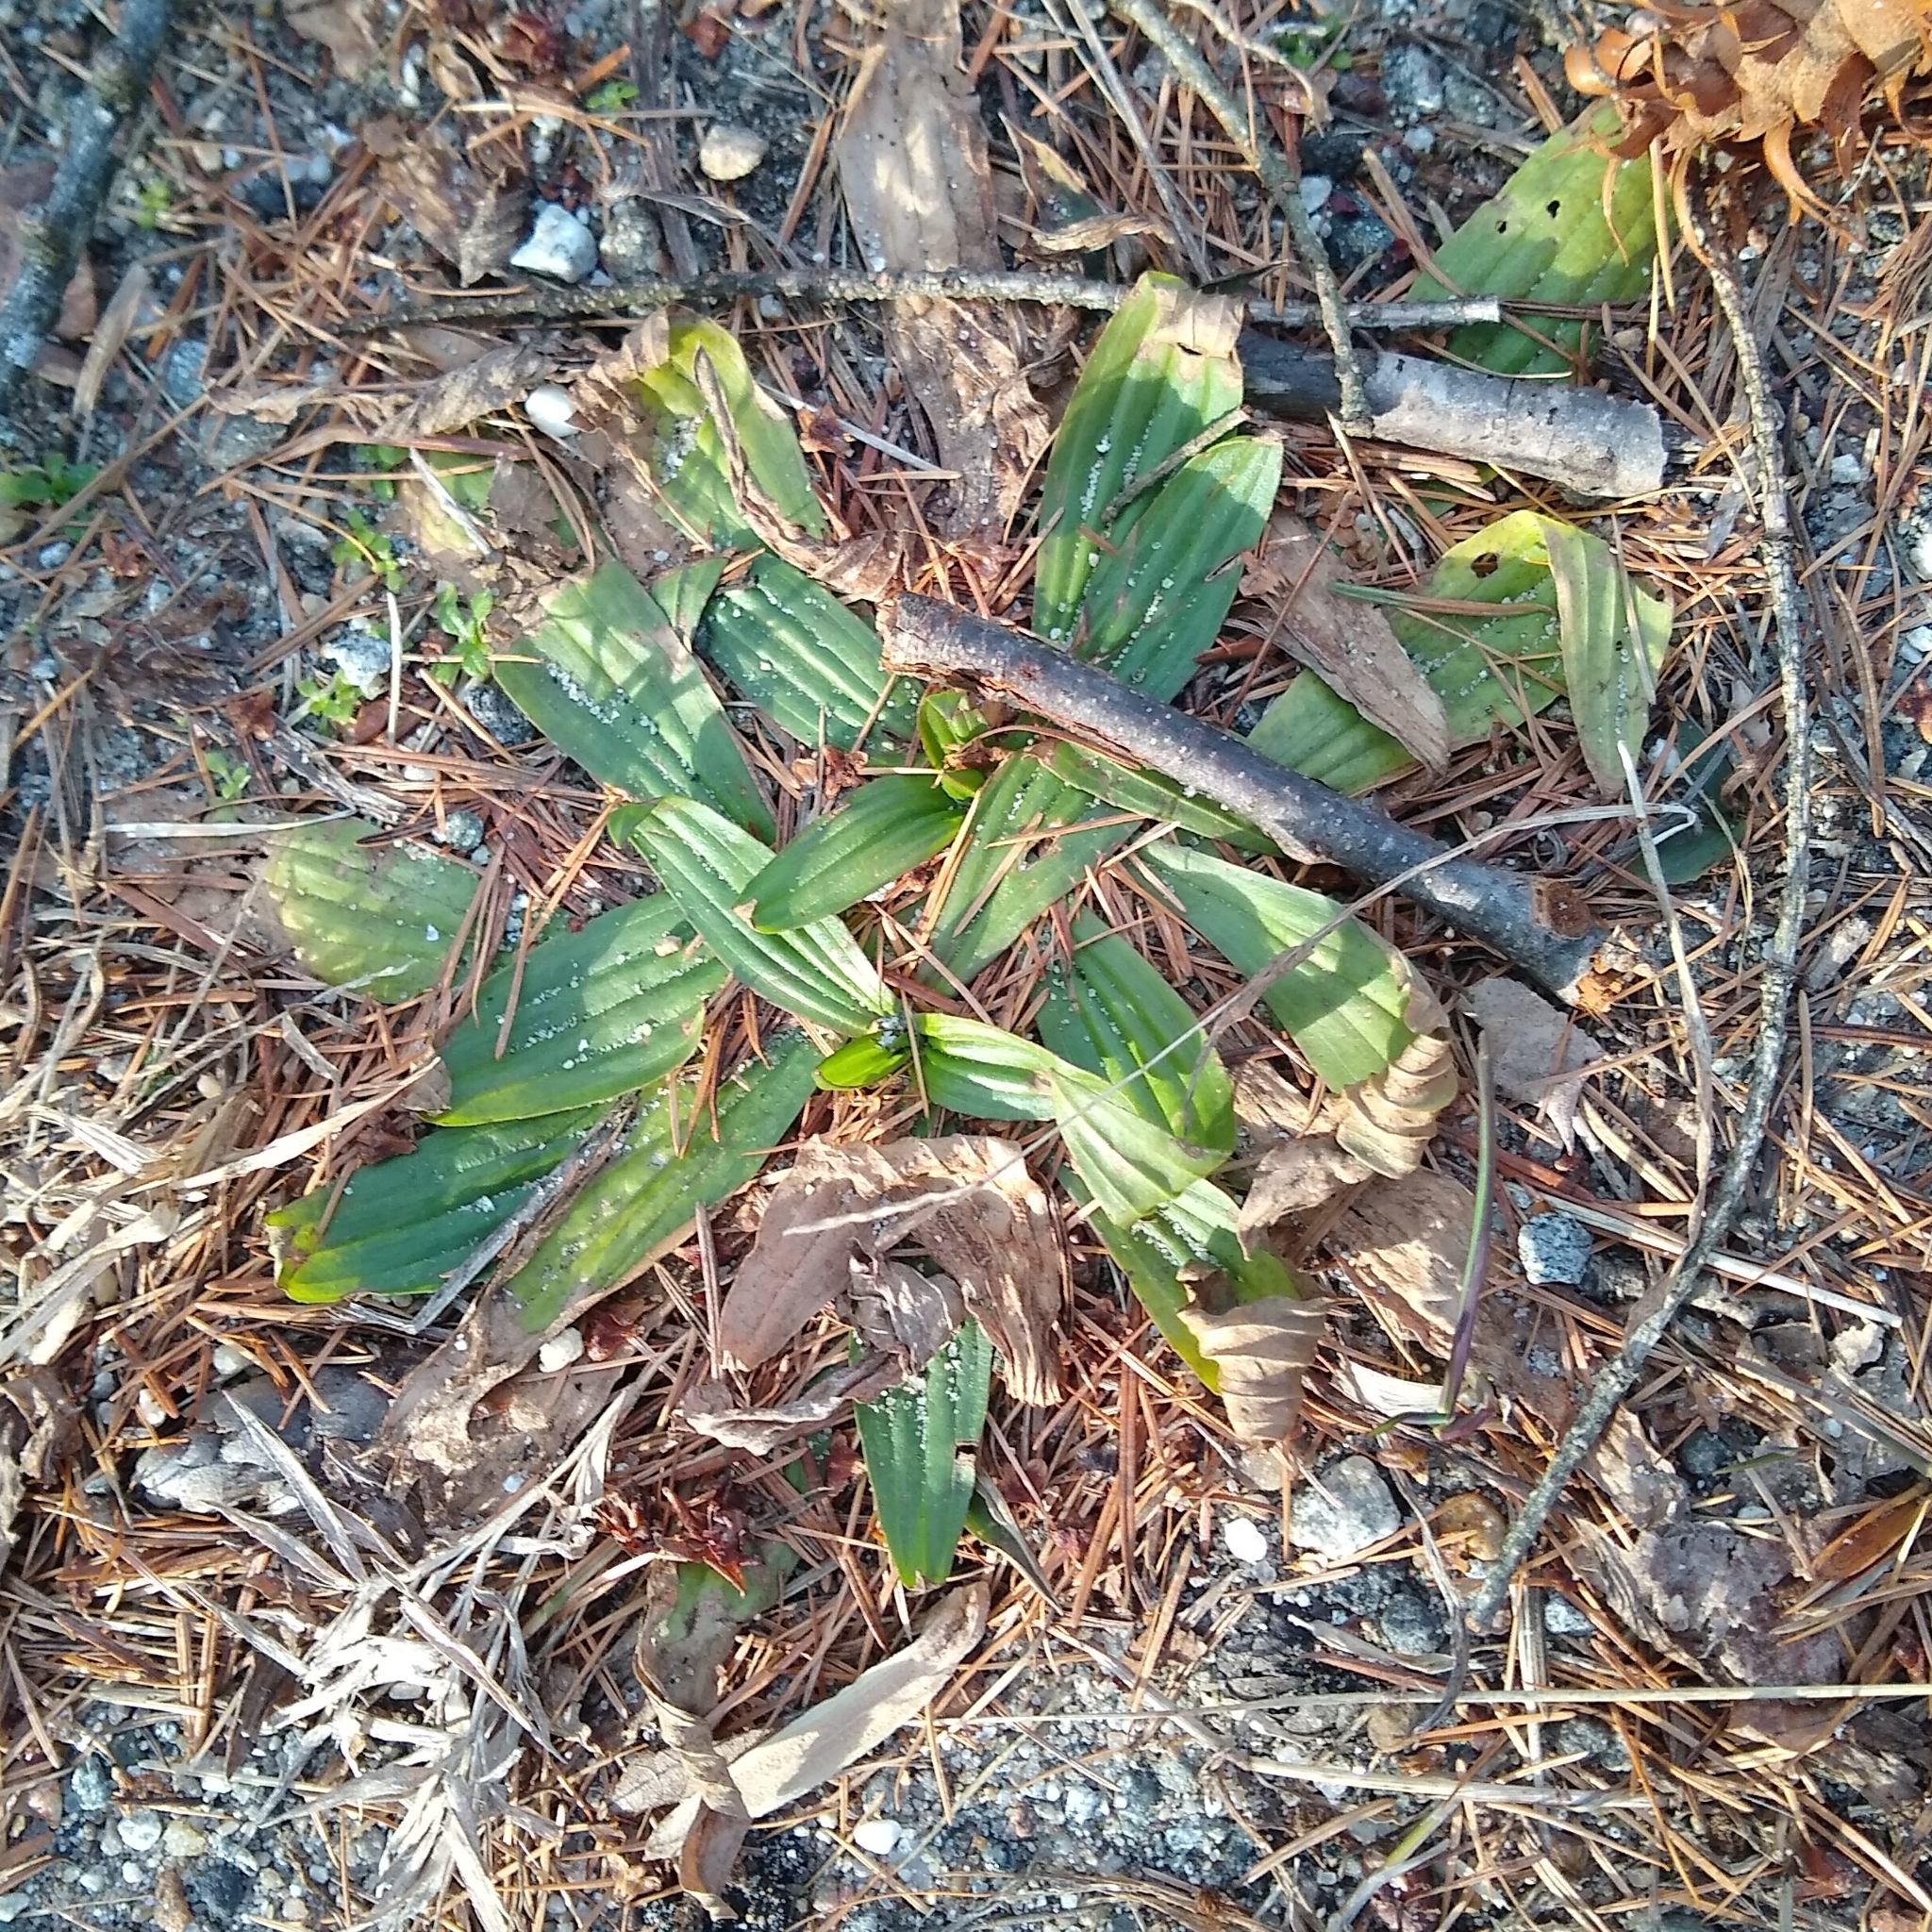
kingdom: Plantae
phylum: Tracheophyta
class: Magnoliopsida
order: Lamiales
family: Plantaginaceae
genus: Plantago
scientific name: Plantago lanceolata
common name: Ribwort plantain
